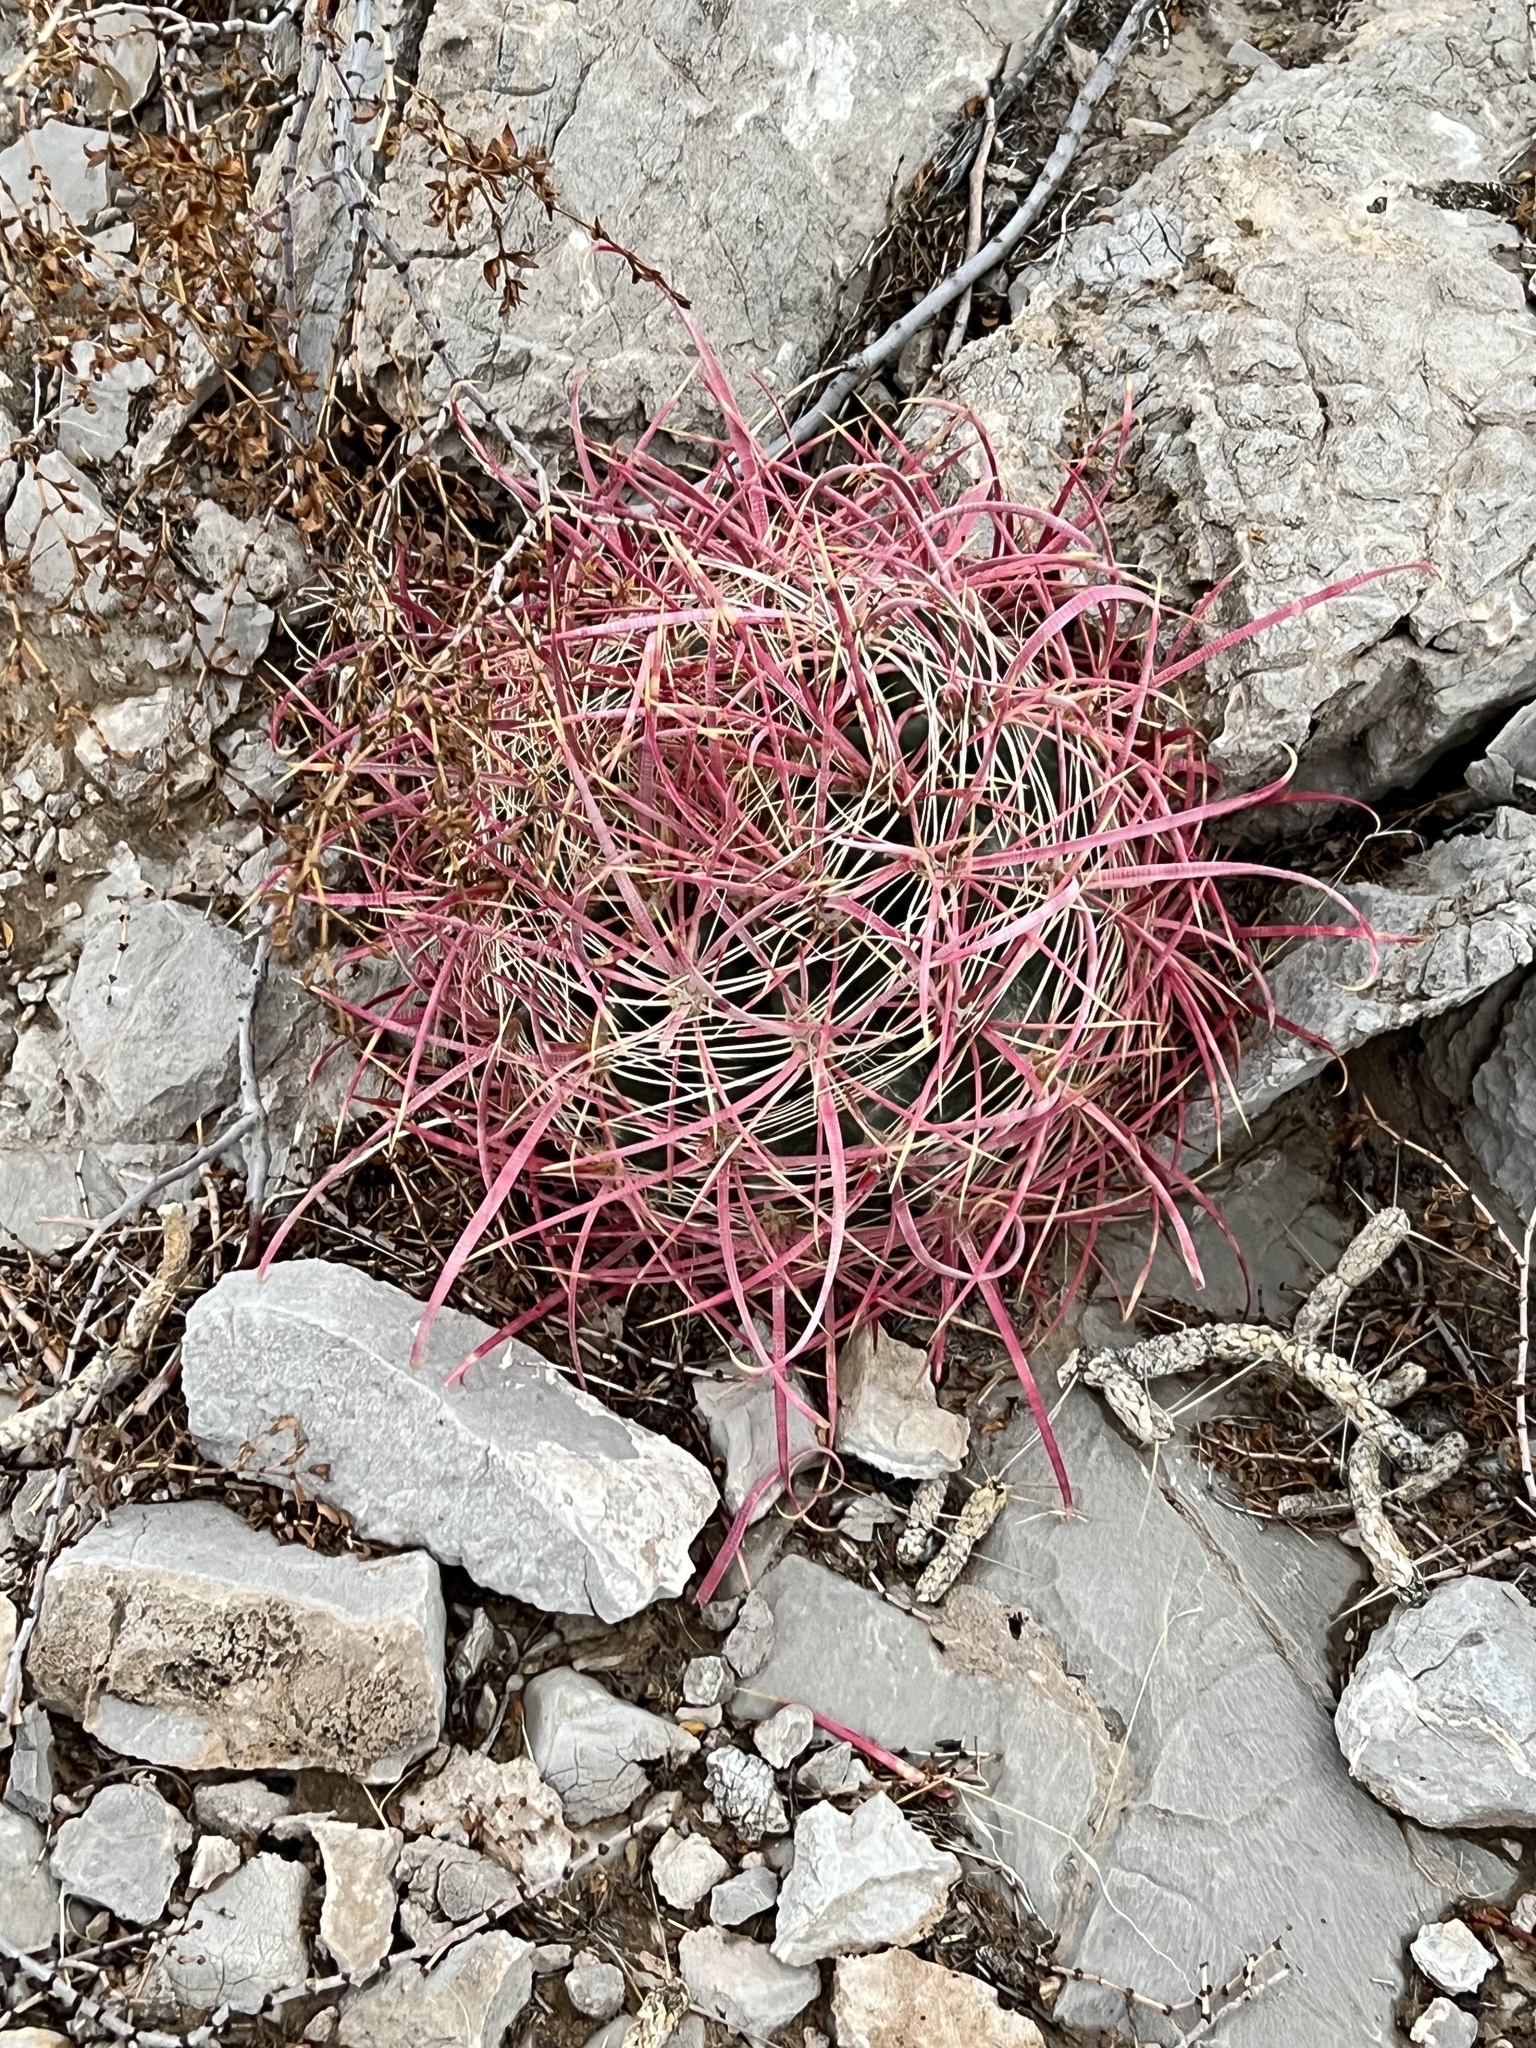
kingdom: Plantae
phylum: Tracheophyta
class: Magnoliopsida
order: Caryophyllales
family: Cactaceae
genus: Ferocactus
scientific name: Ferocactus cylindraceus
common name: California barrel cactus
